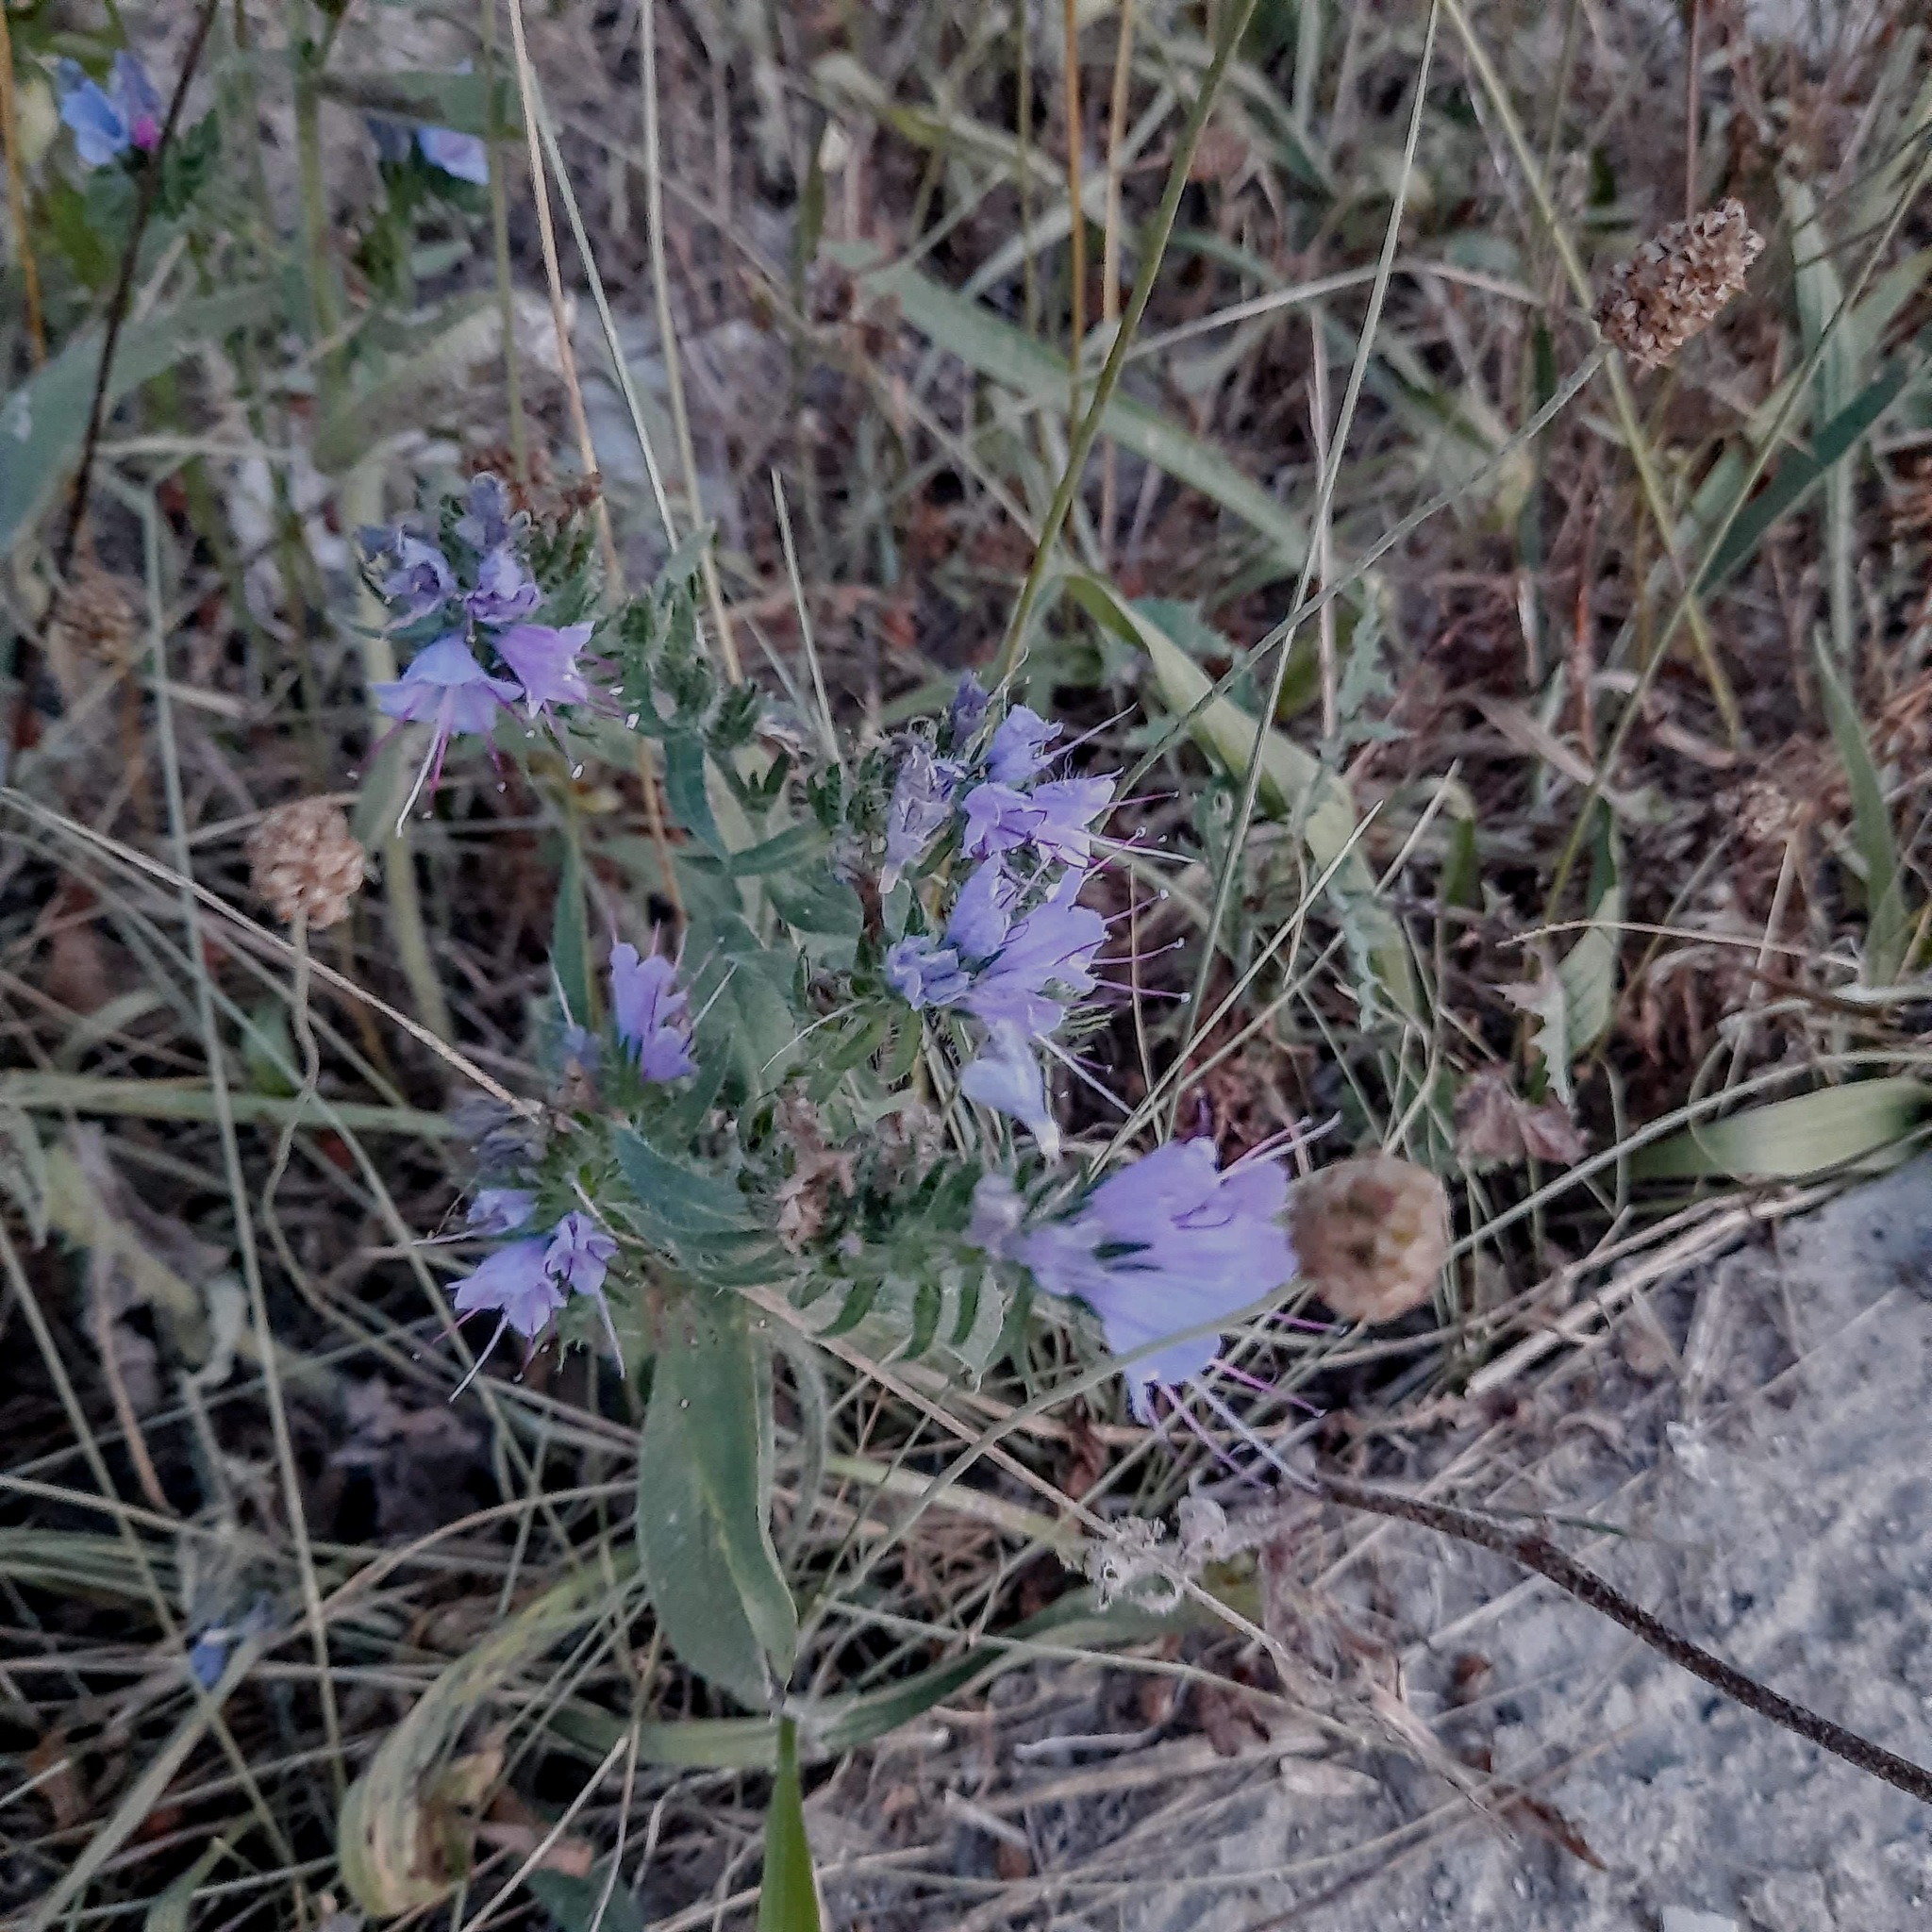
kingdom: Plantae
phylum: Tracheophyta
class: Magnoliopsida
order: Boraginales
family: Boraginaceae
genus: Echium
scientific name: Echium vulgare
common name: Common viper's bugloss
